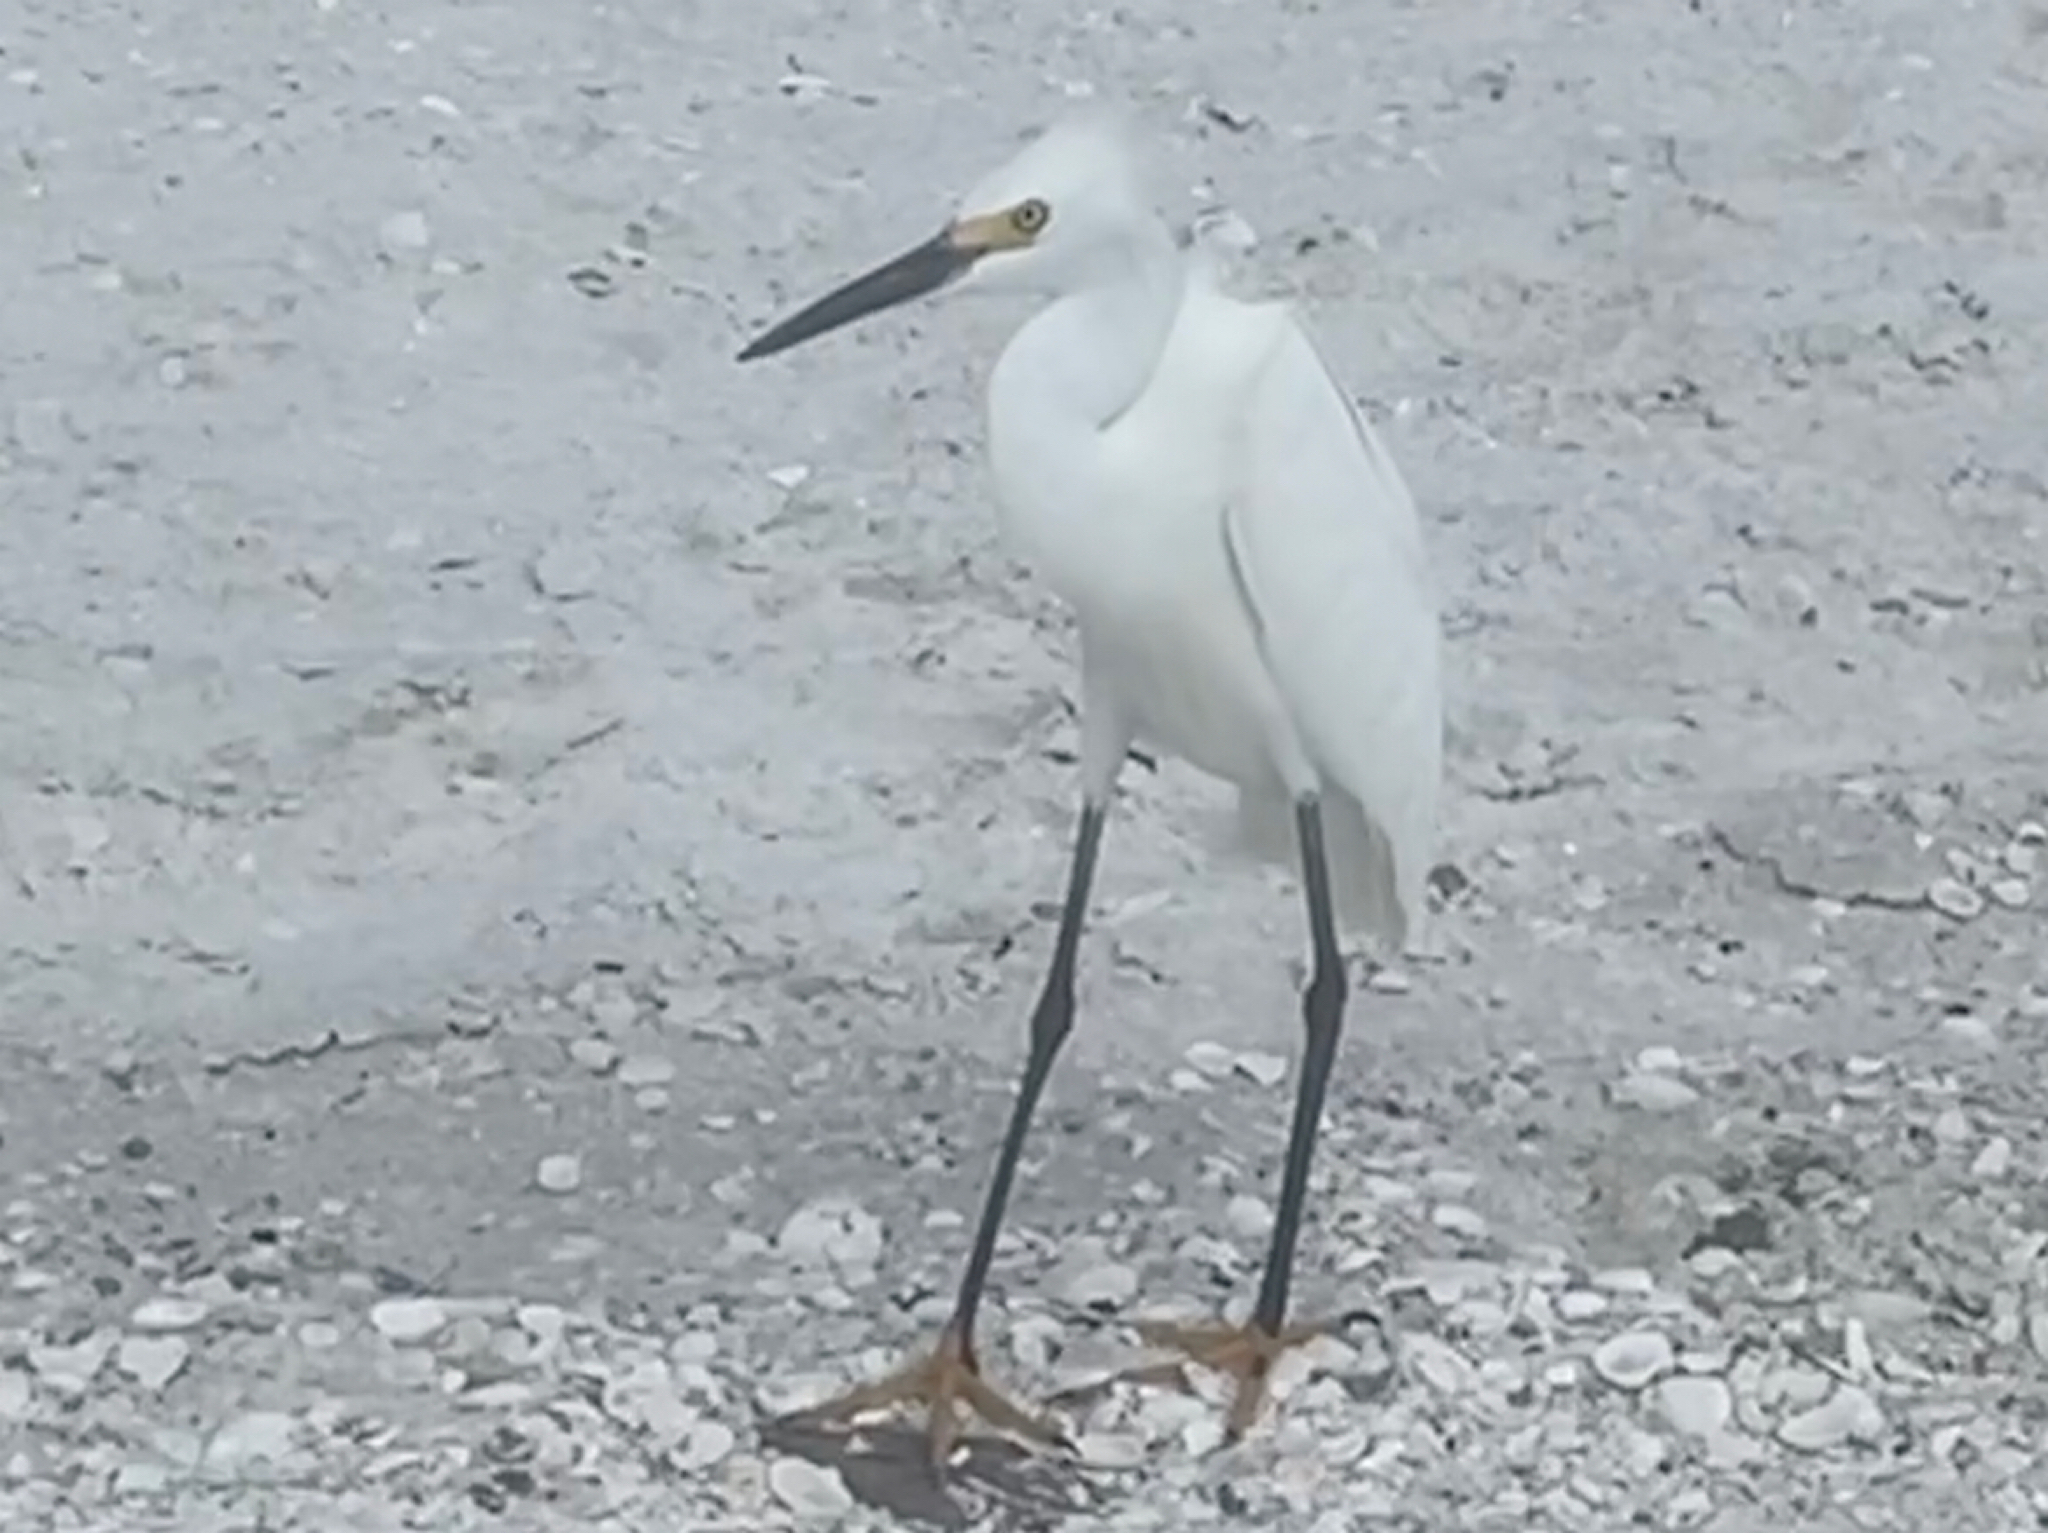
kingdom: Animalia
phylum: Chordata
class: Aves
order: Pelecaniformes
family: Ardeidae
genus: Egretta
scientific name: Egretta thula
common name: Snowy egret
